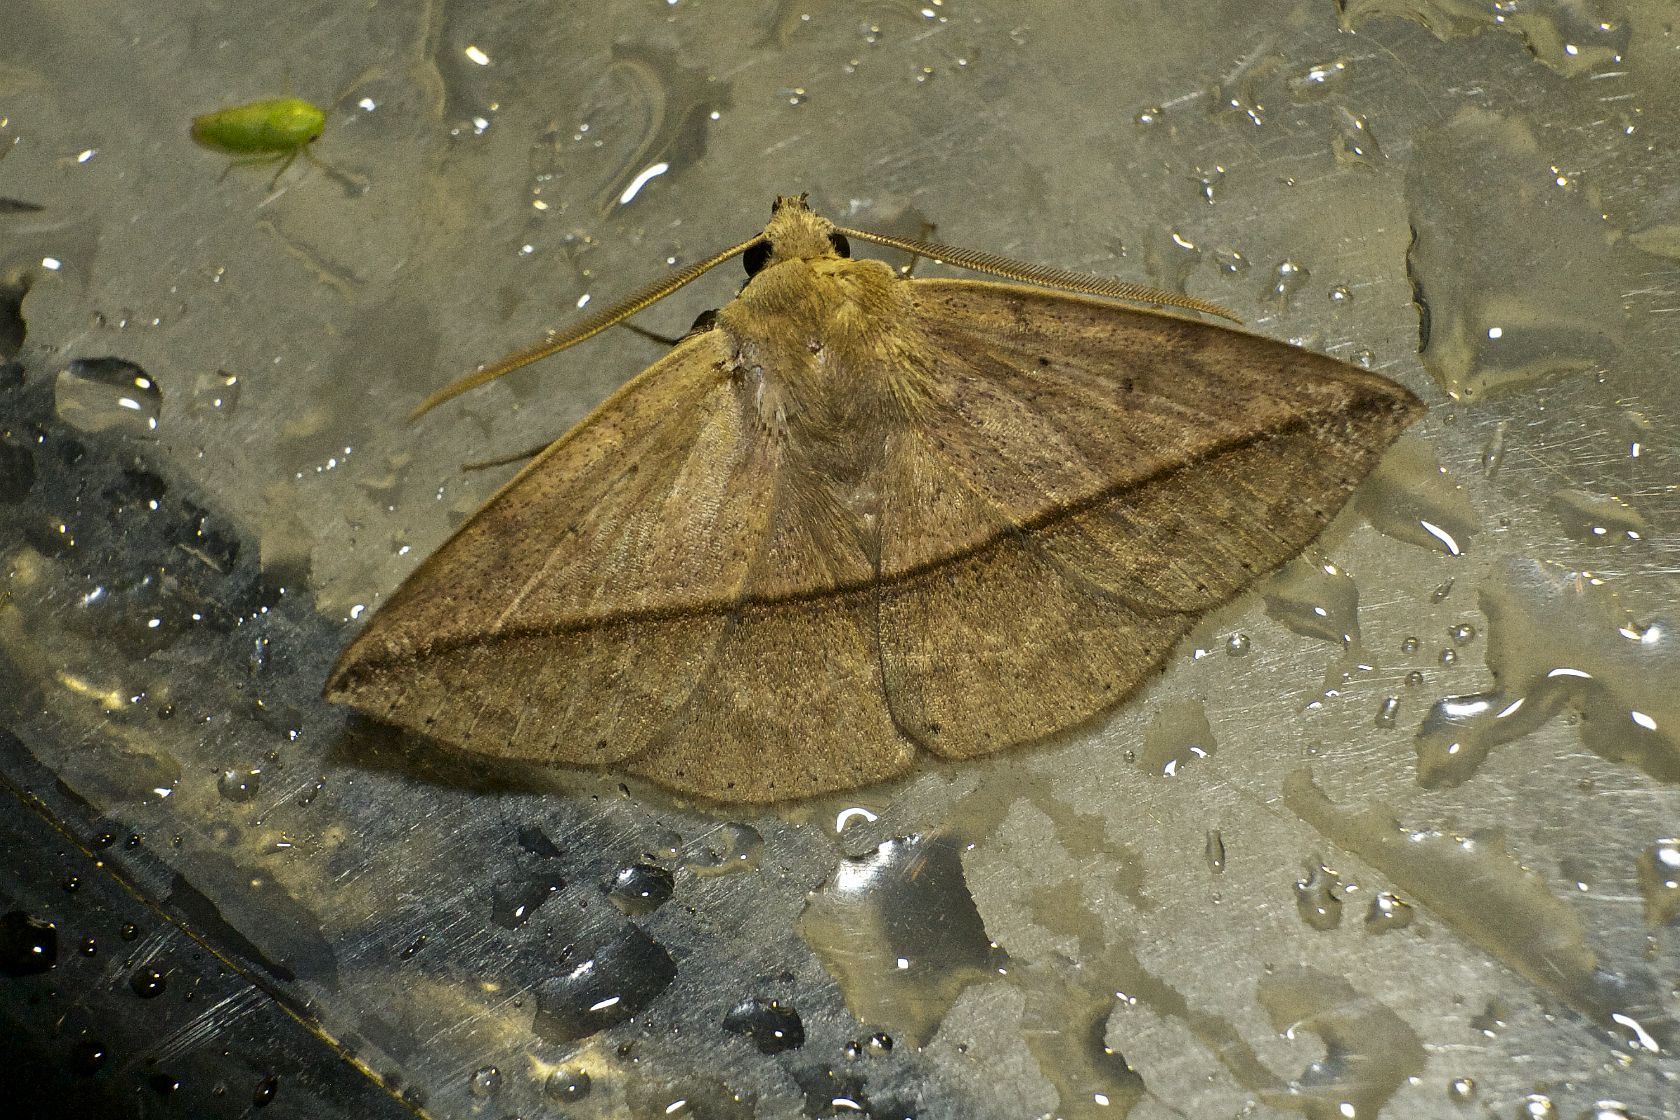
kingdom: Animalia
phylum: Arthropoda
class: Insecta
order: Lepidoptera
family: Erebidae
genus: Ugia
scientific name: Ugia purpurea
